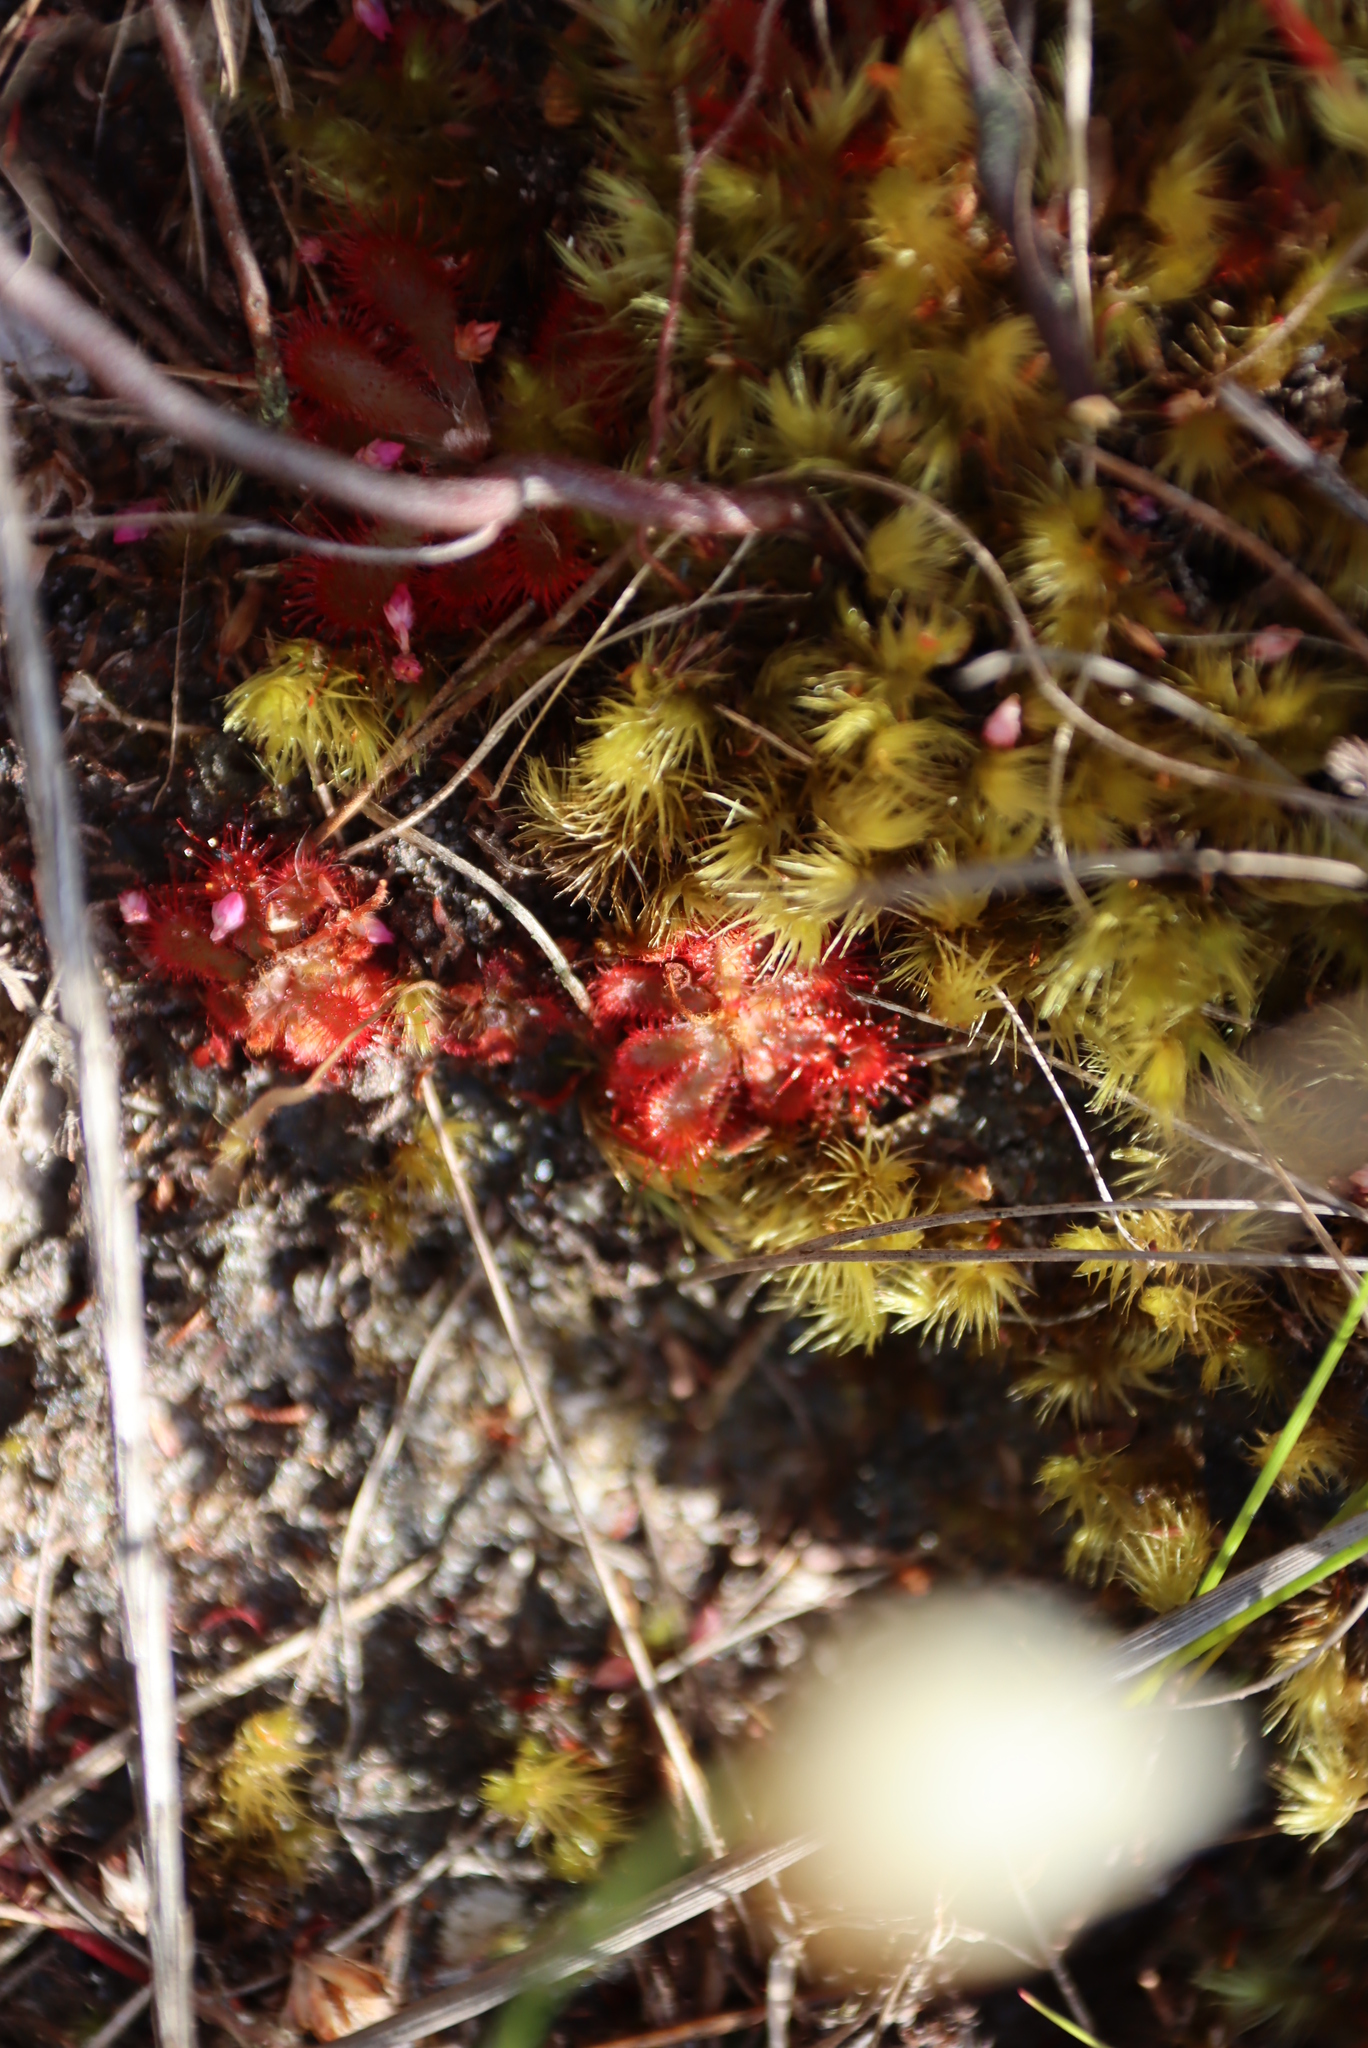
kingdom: Plantae
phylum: Tracheophyta
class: Magnoliopsida
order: Caryophyllales
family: Droseraceae
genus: Drosera
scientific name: Drosera aliciae
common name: Alice sundew
